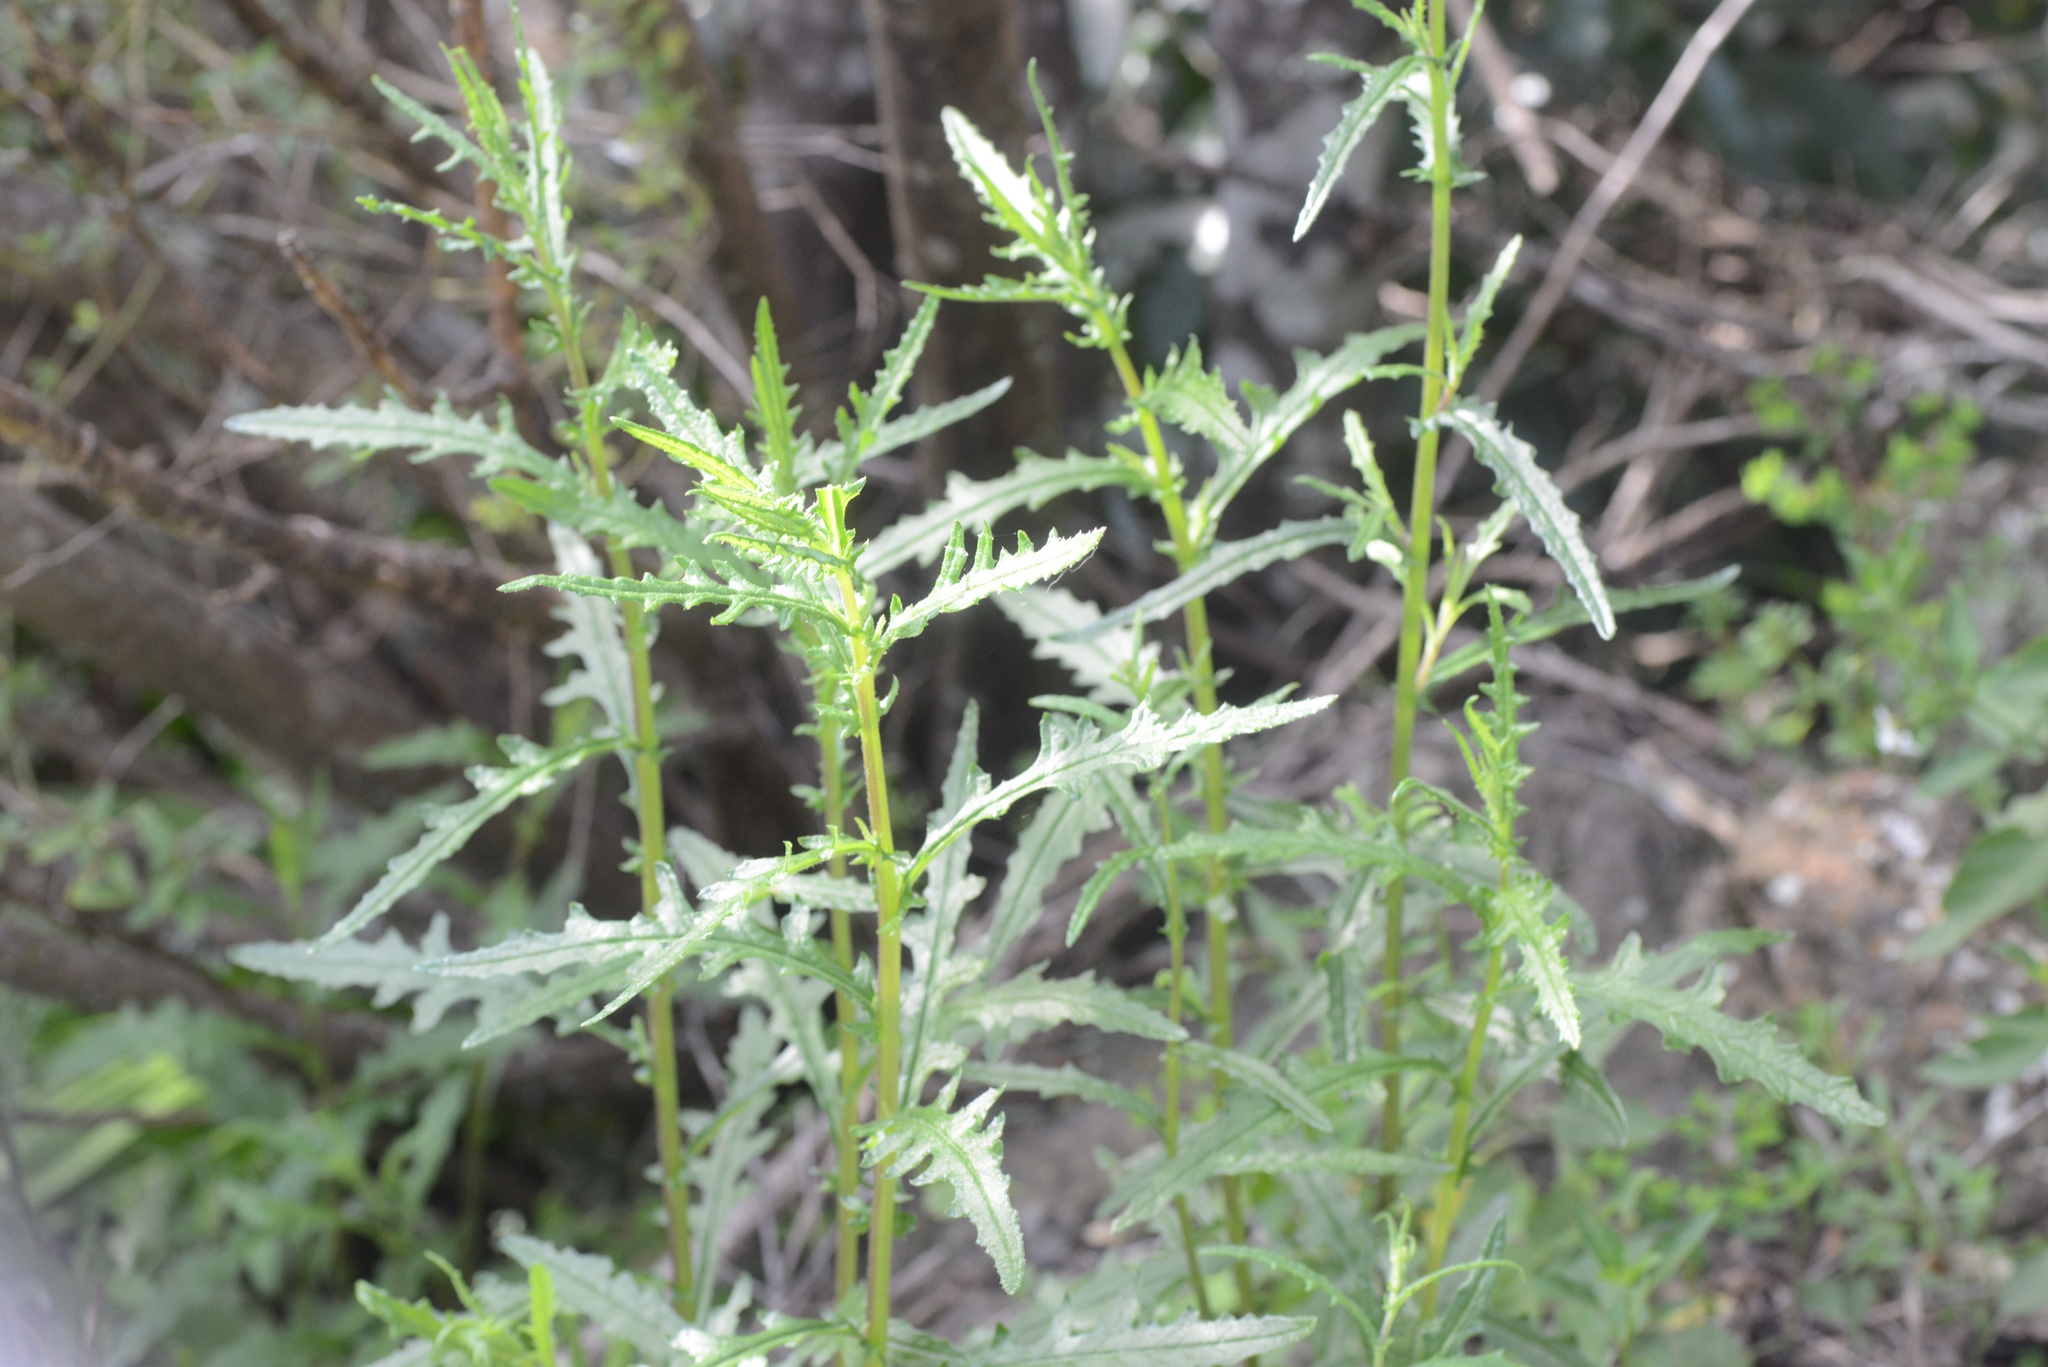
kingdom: Plantae
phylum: Tracheophyta
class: Magnoliopsida
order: Asterales
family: Asteraceae
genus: Senecio
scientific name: Senecio hispidulus
